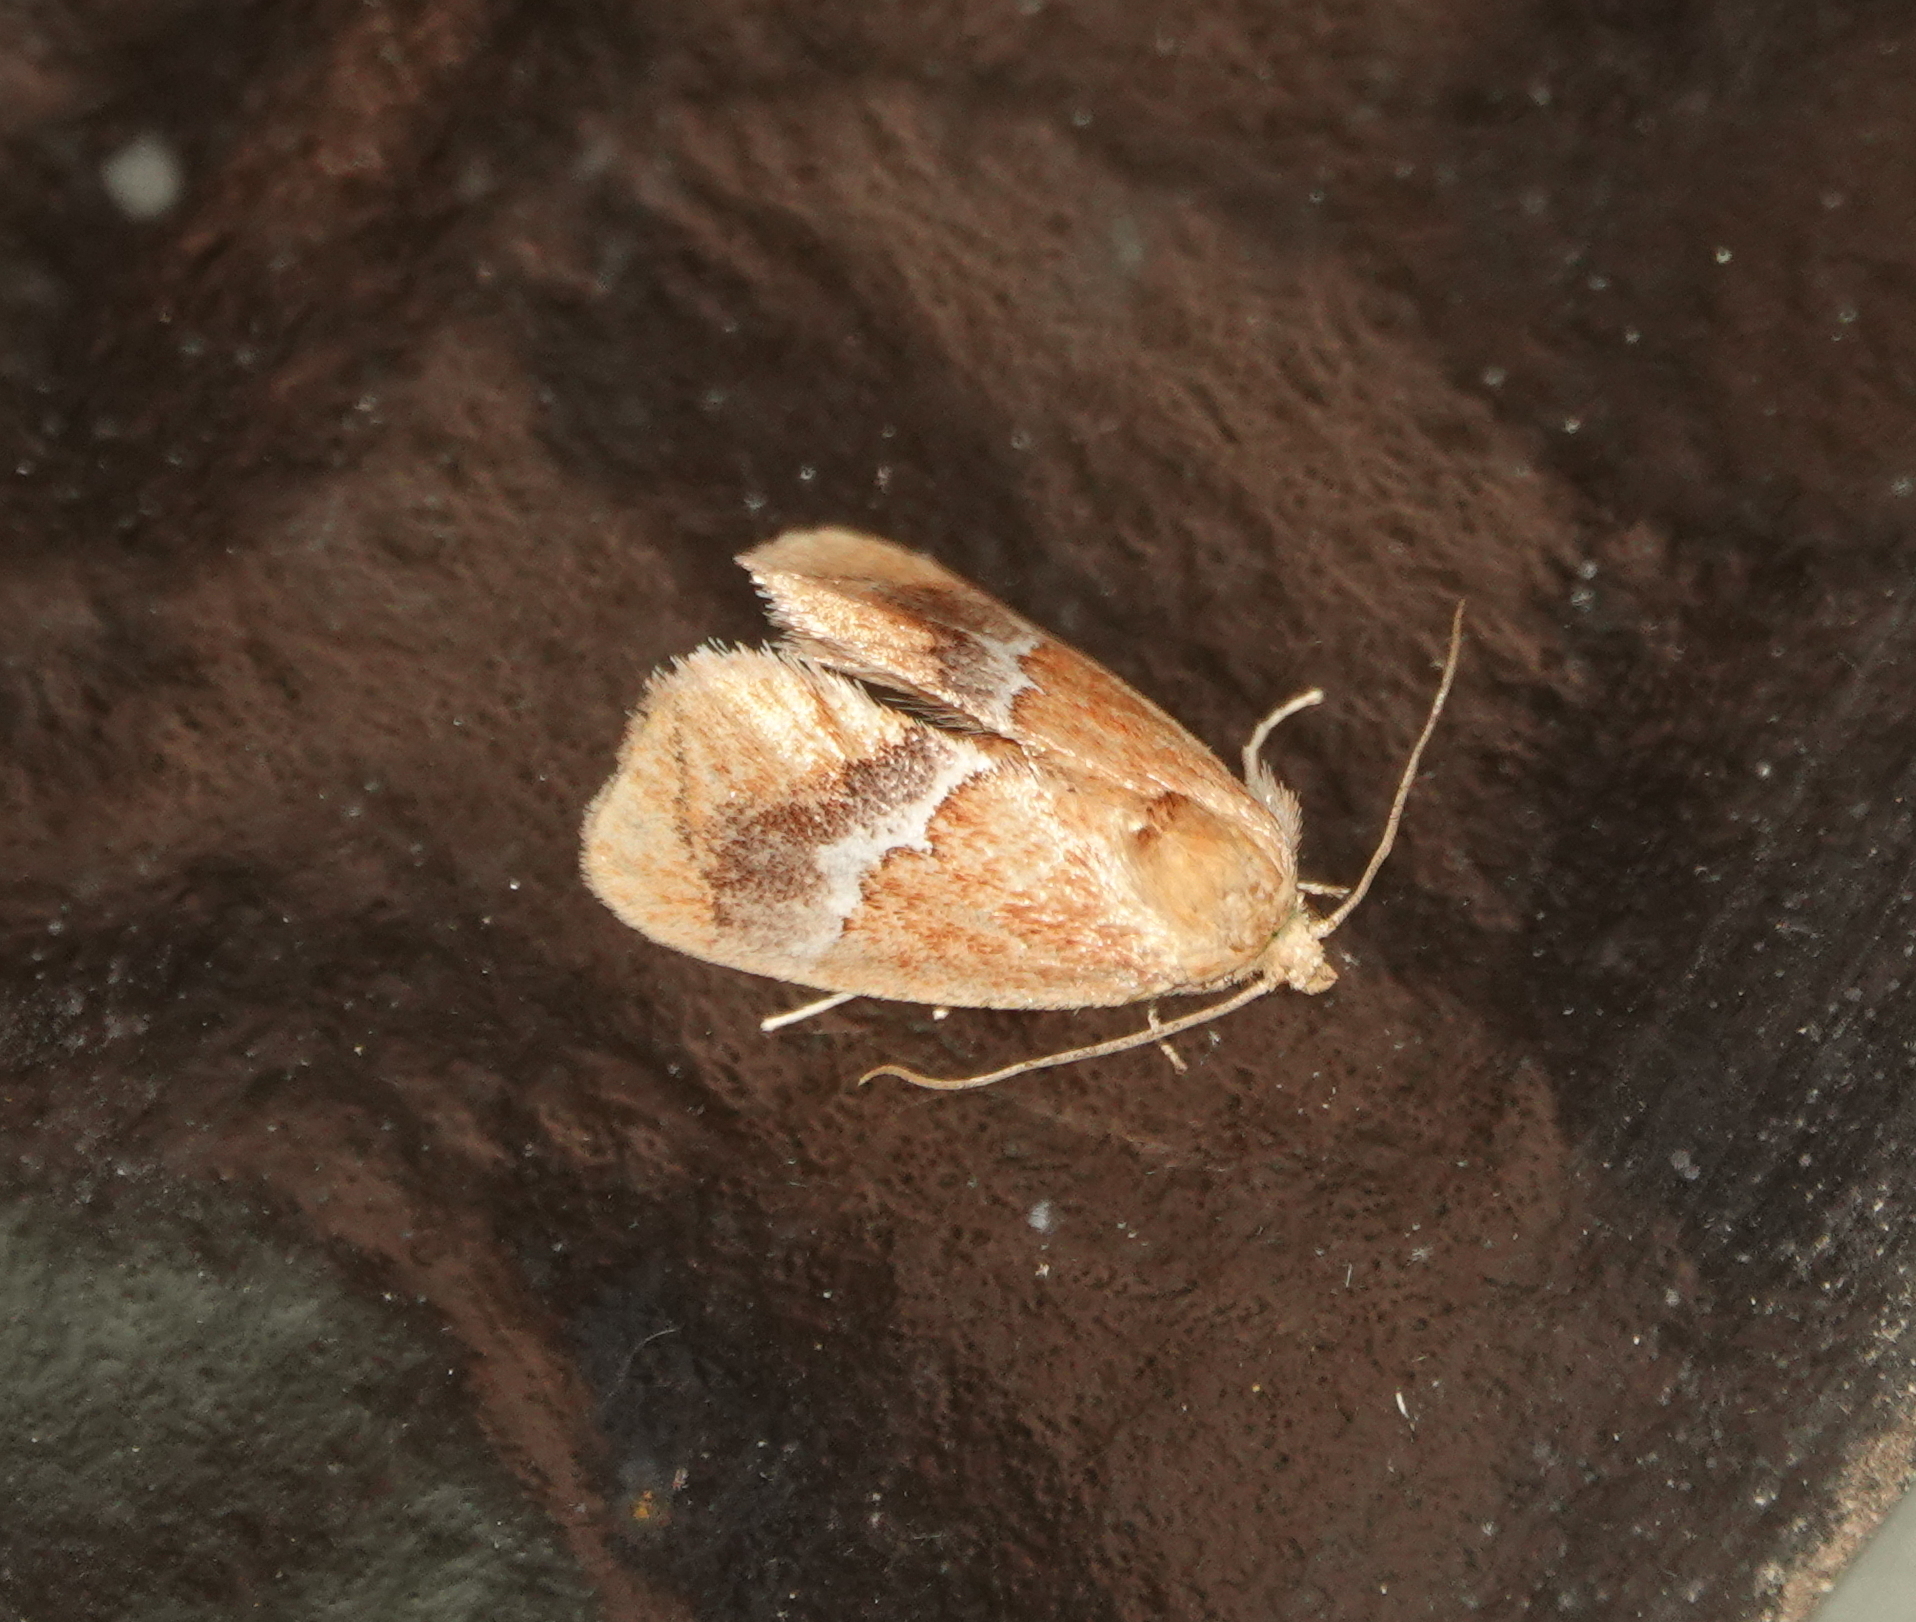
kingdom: Animalia
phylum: Arthropoda
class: Insecta
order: Lepidoptera
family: Limacodidae
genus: Lithacodes
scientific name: Lithacodes fasciola
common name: Yellow-shouldered slug moth
